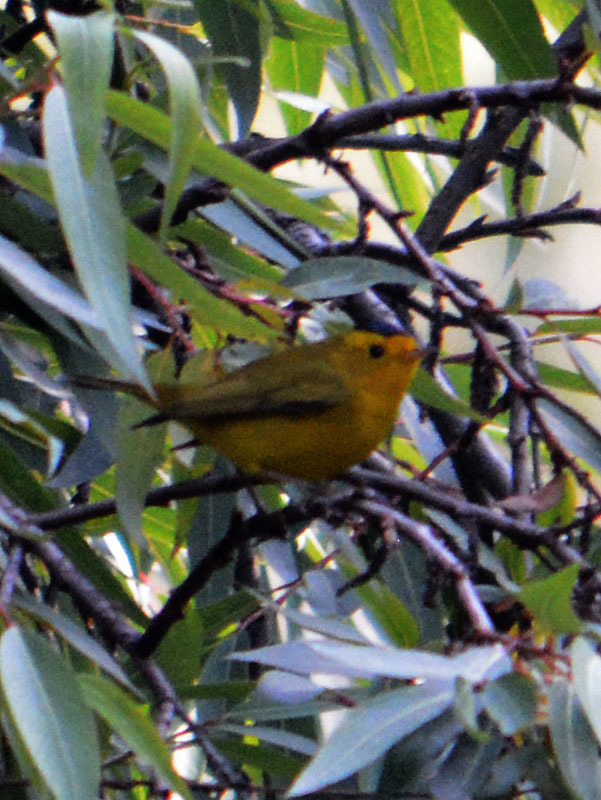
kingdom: Animalia
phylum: Chordata
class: Aves
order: Passeriformes
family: Parulidae
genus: Cardellina
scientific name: Cardellina pusilla
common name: Wilson's warbler
